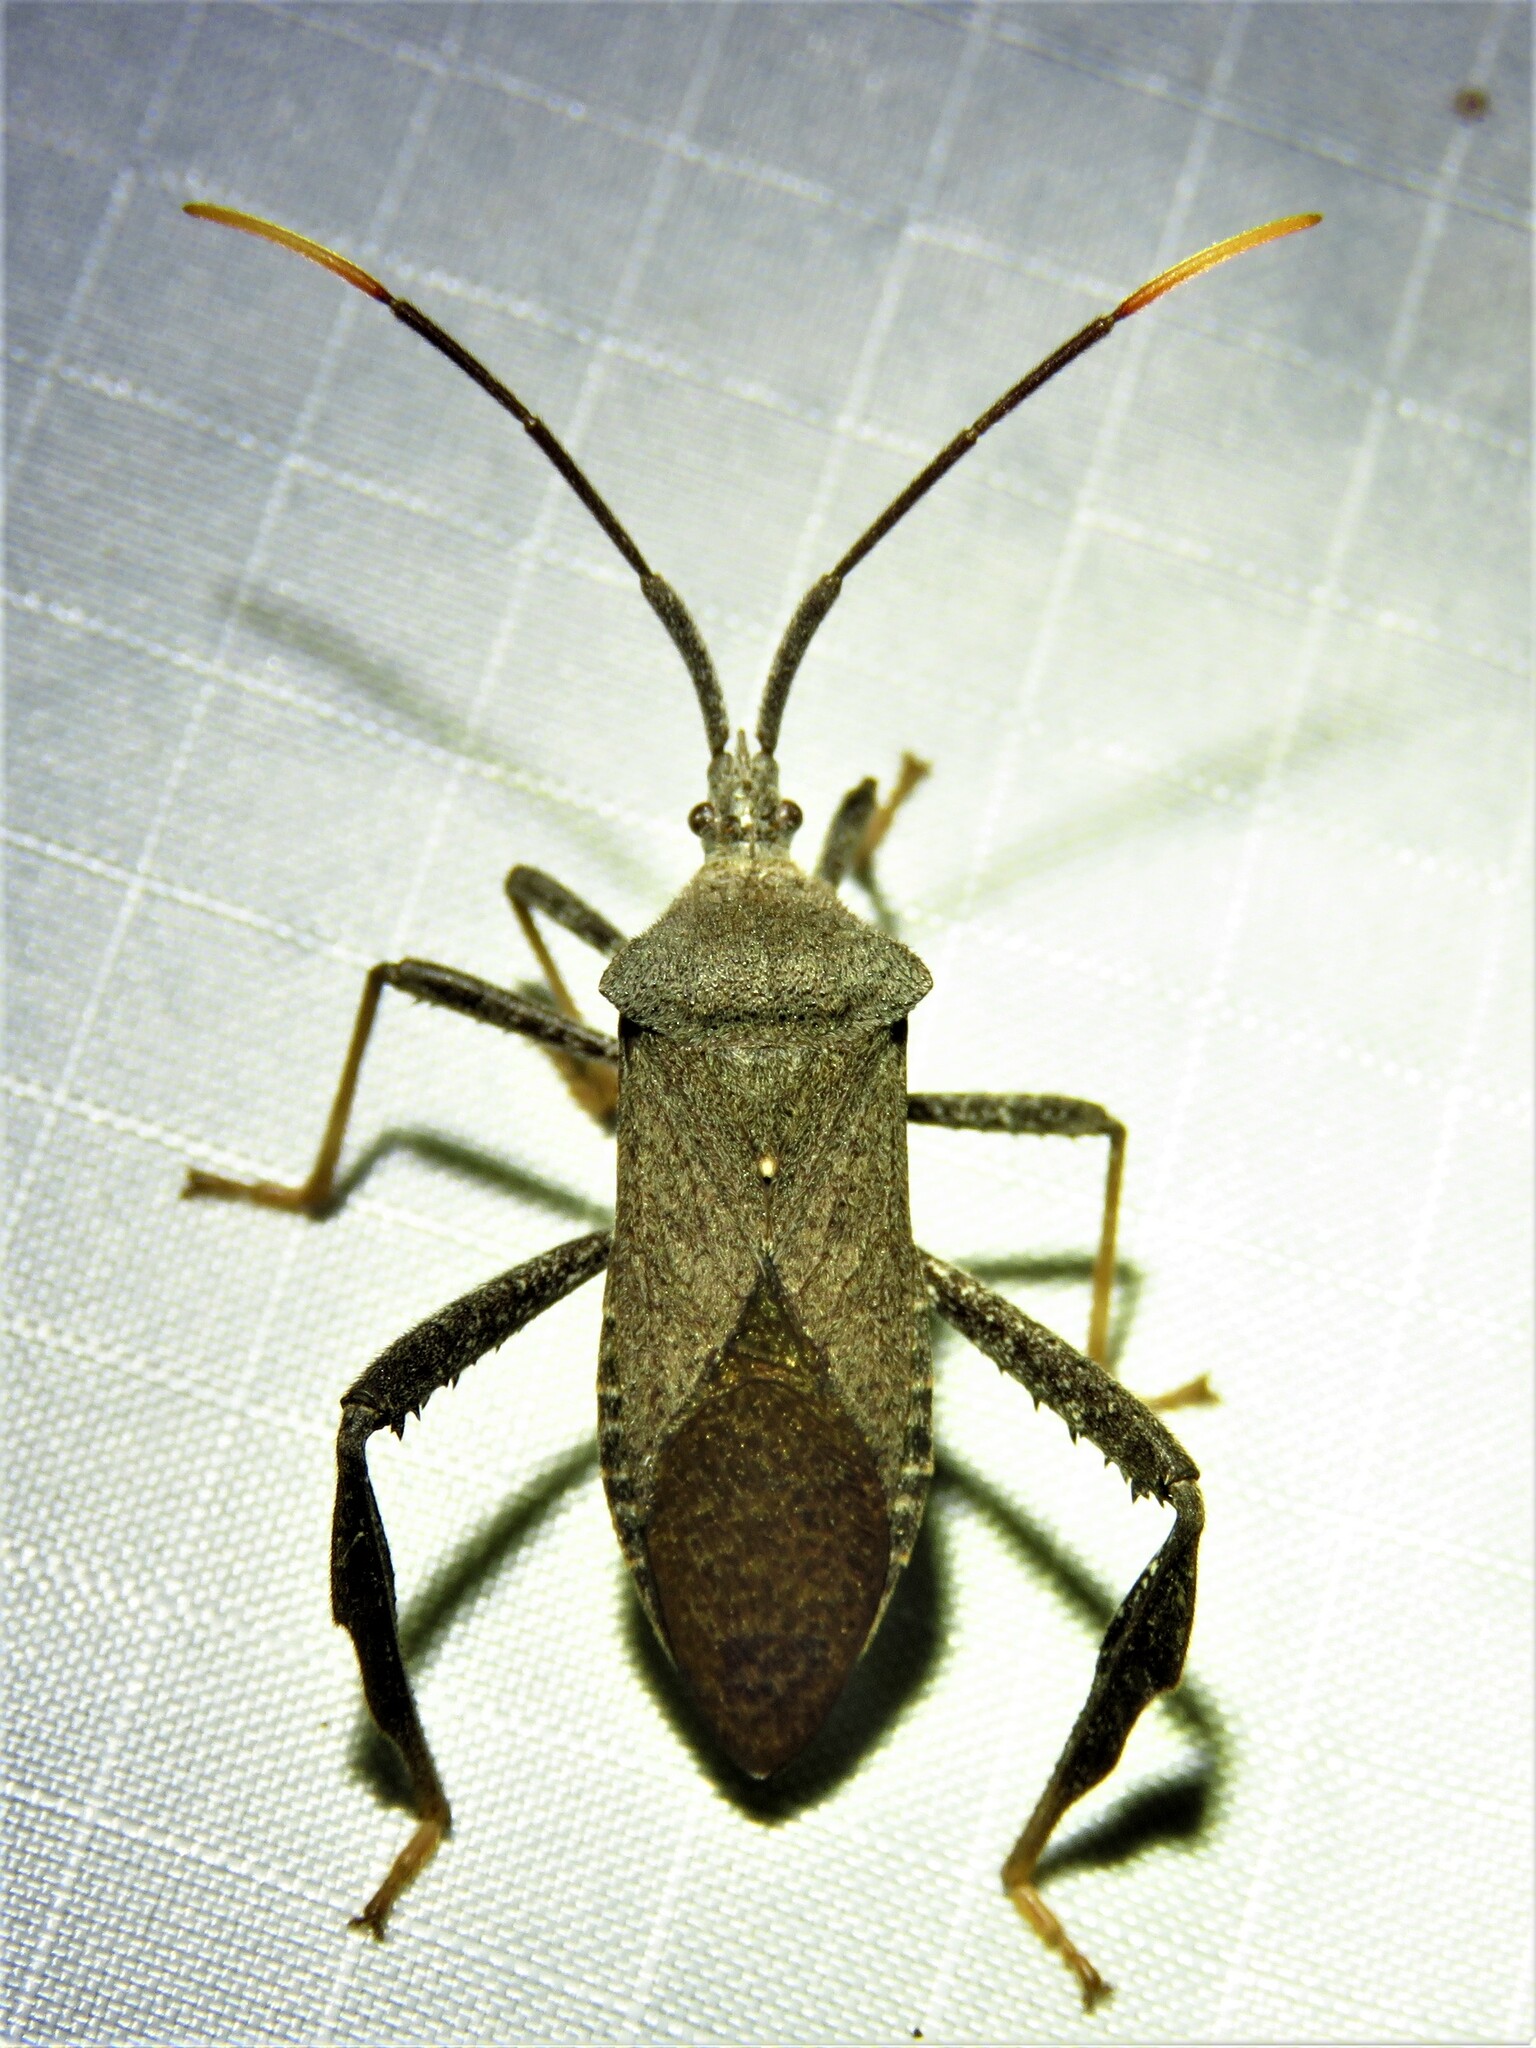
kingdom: Animalia
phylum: Arthropoda
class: Insecta
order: Hemiptera
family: Coreidae
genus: Acanthocephala
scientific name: Acanthocephala terminalis
